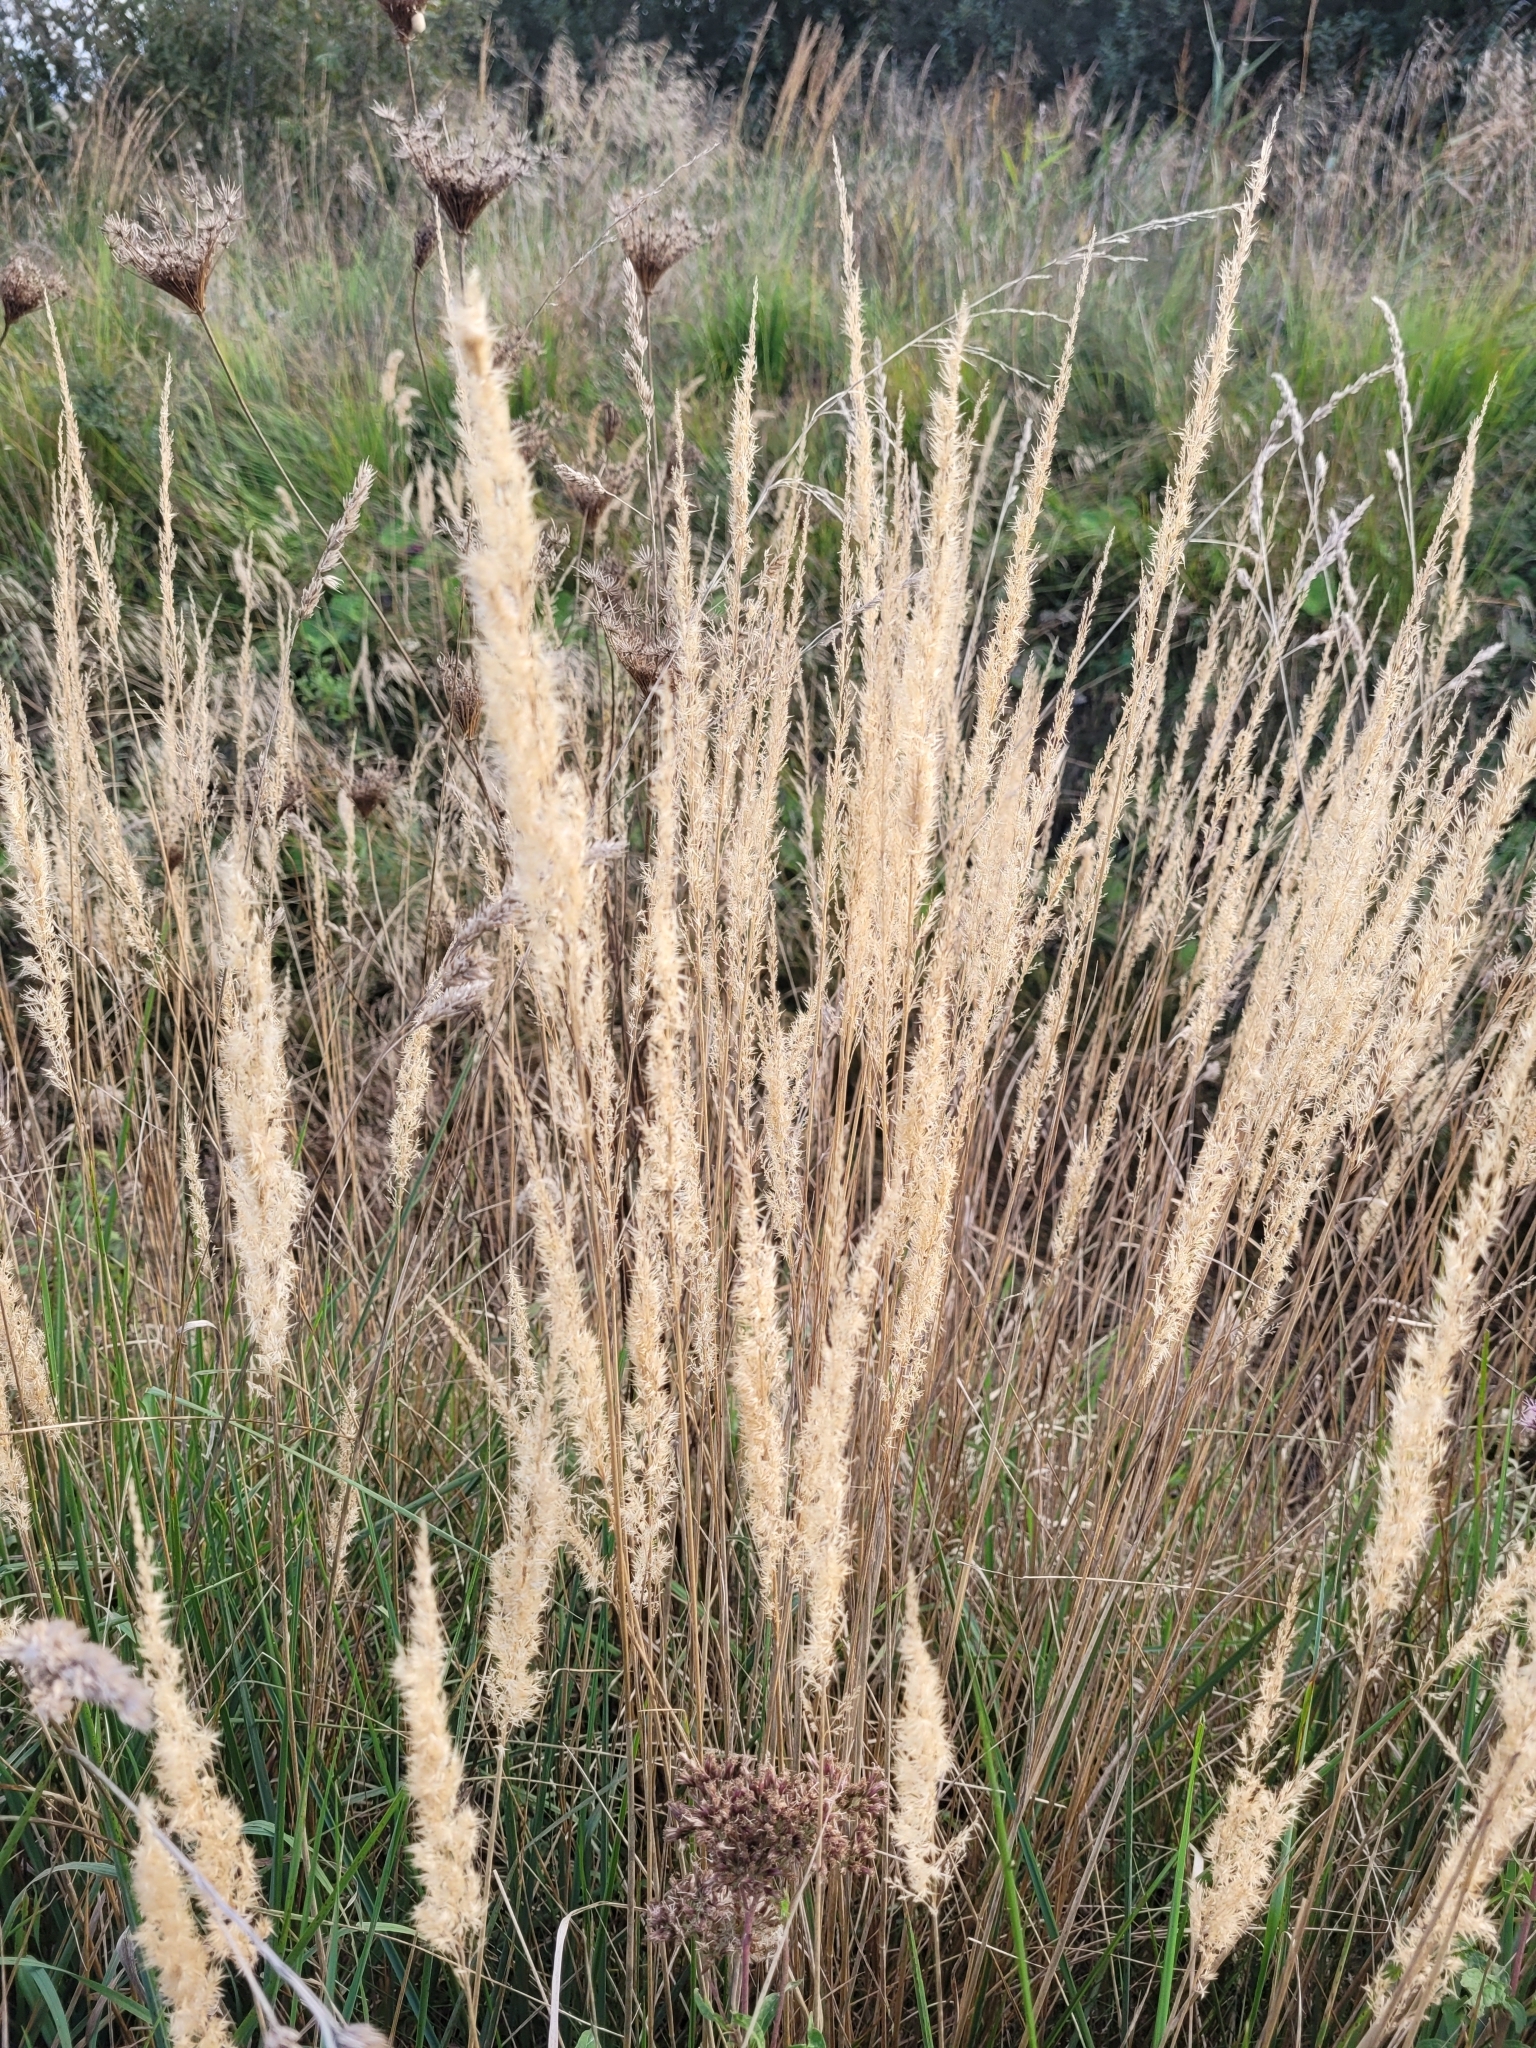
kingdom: Plantae
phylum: Tracheophyta
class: Liliopsida
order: Poales
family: Poaceae
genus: Calamagrostis
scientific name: Calamagrostis epigejos
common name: Wood small-reed
